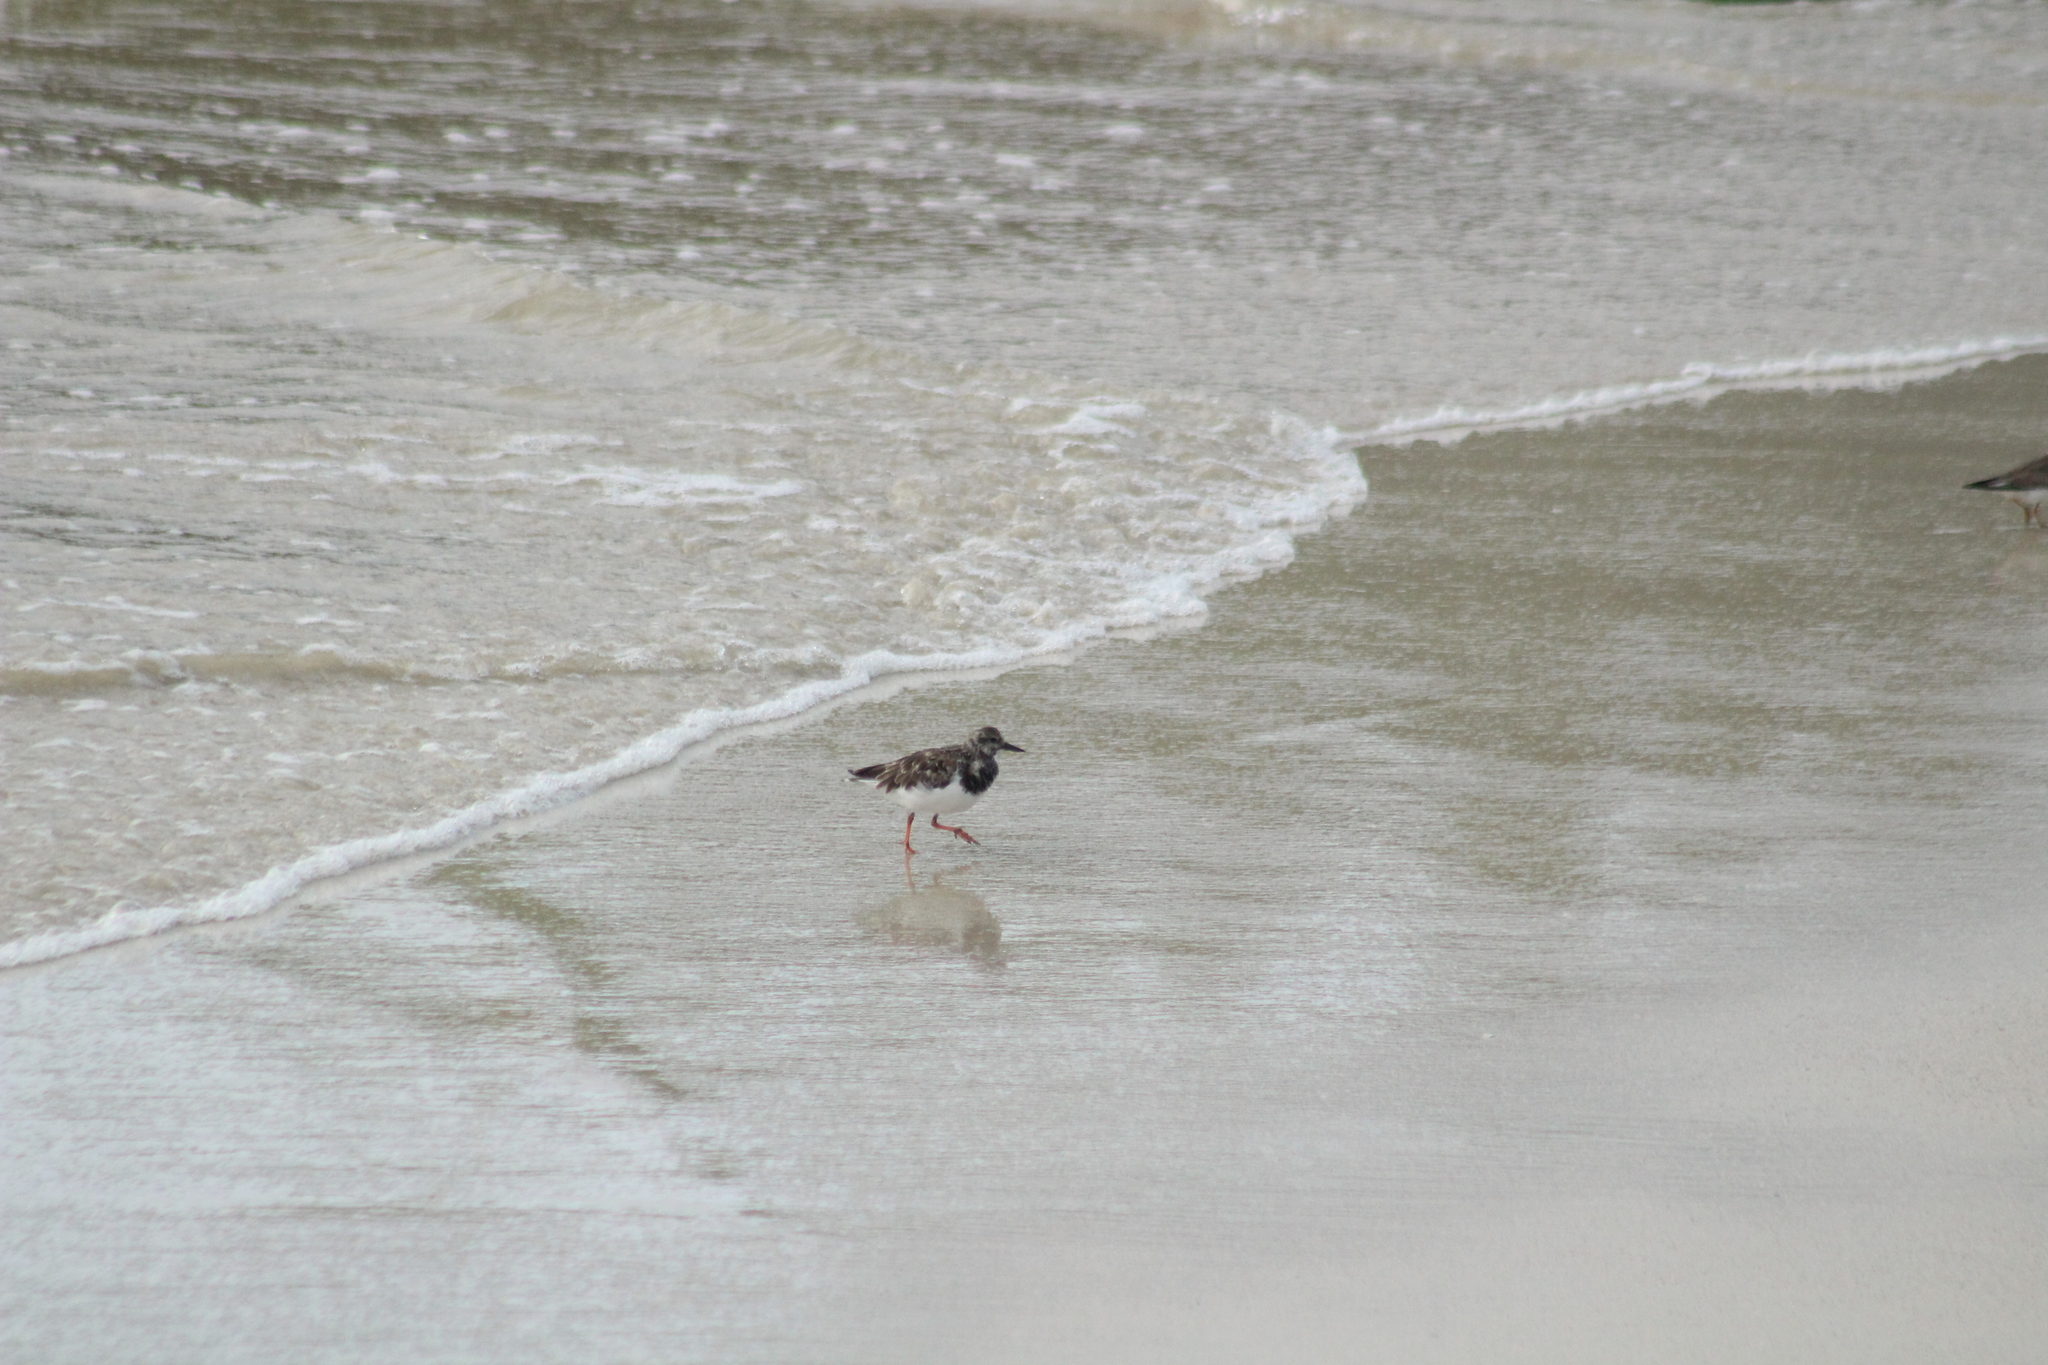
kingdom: Animalia
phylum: Chordata
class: Aves
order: Charadriiformes
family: Scolopacidae
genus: Arenaria
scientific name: Arenaria interpres
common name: Ruddy turnstone
